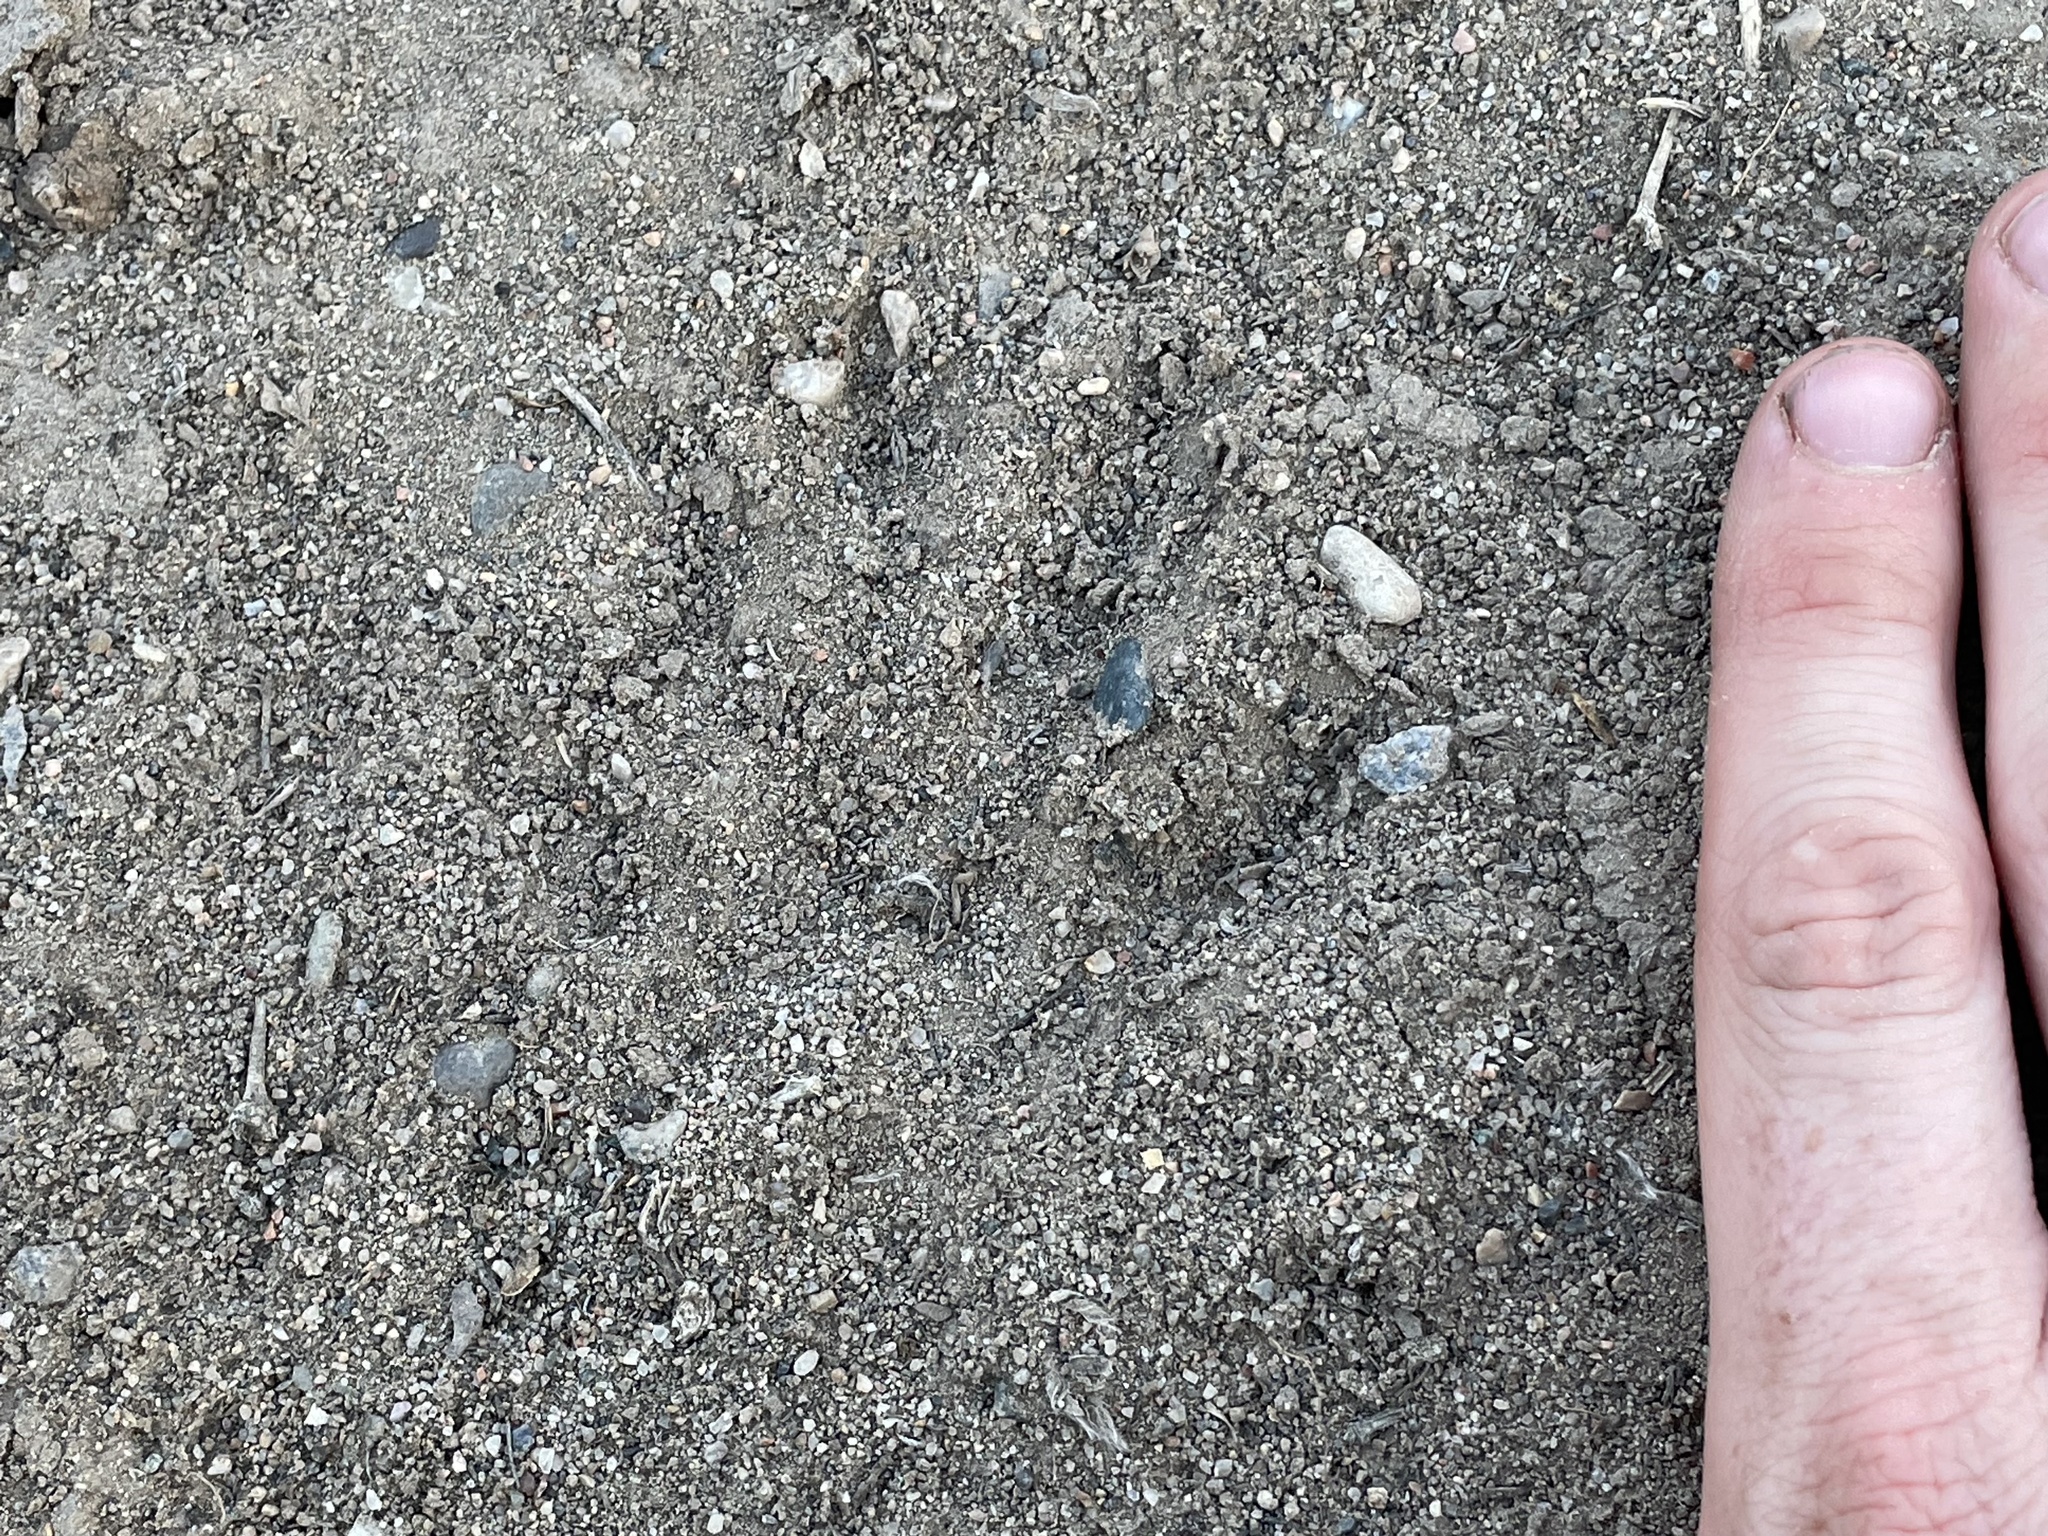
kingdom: Animalia
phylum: Chordata
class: Mammalia
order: Carnivora
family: Procyonidae
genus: Procyon
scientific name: Procyon lotor
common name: Raccoon
